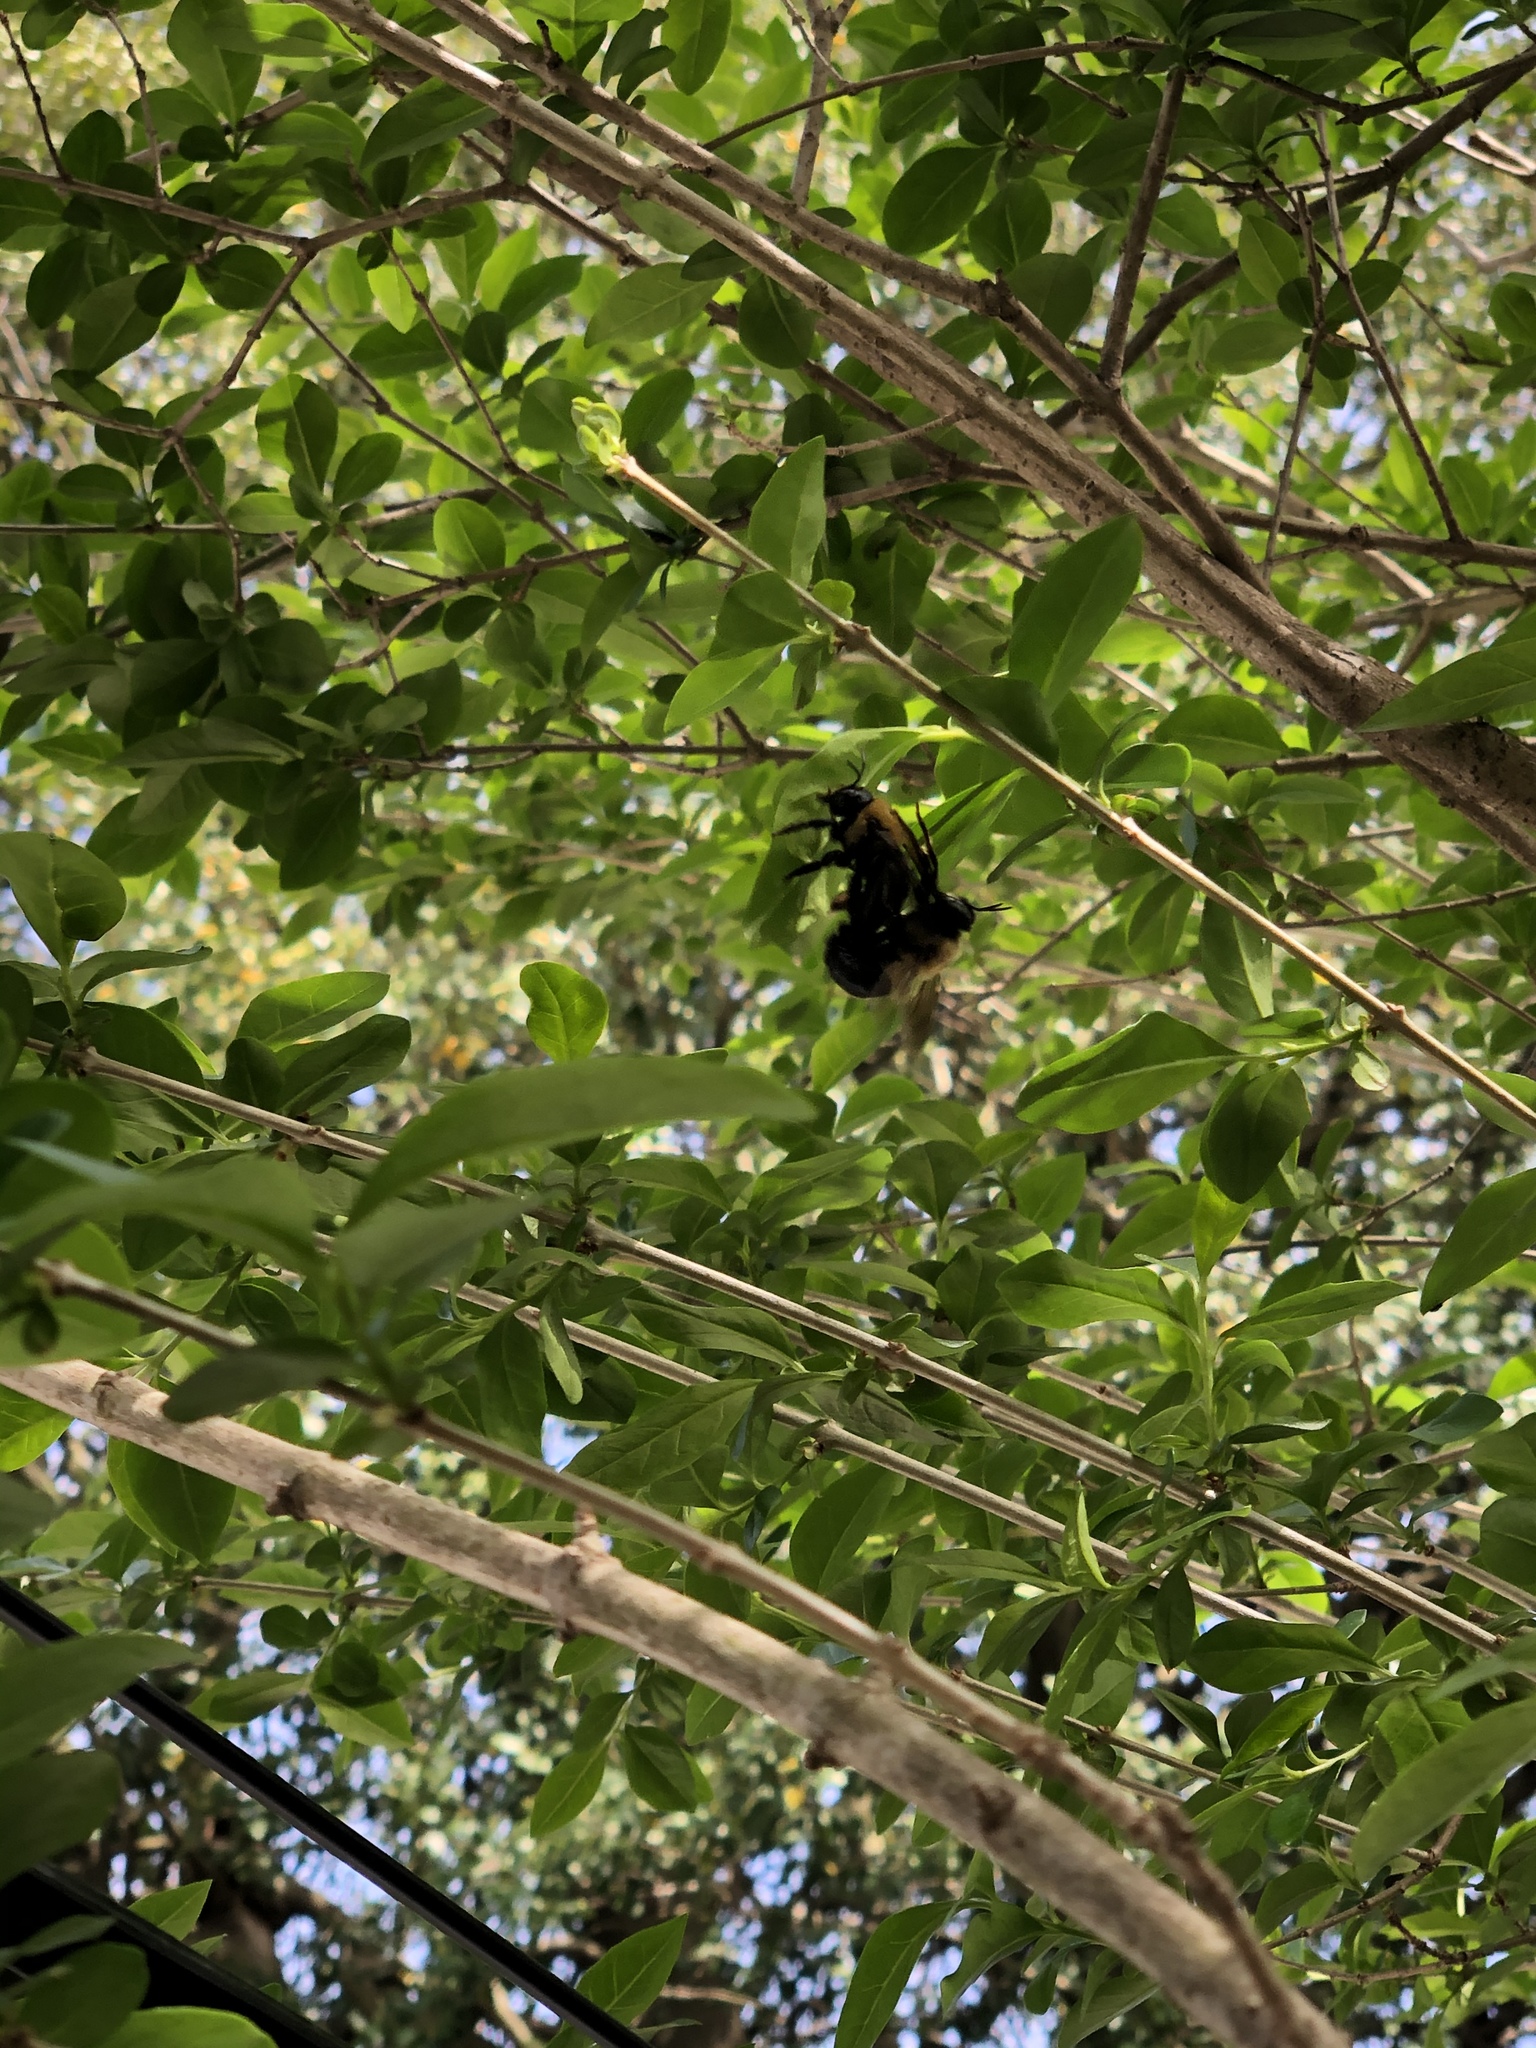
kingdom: Animalia
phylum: Arthropoda
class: Insecta
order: Hymenoptera
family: Apidae
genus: Xylocopa
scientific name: Xylocopa virginica
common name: Carpenter bee
